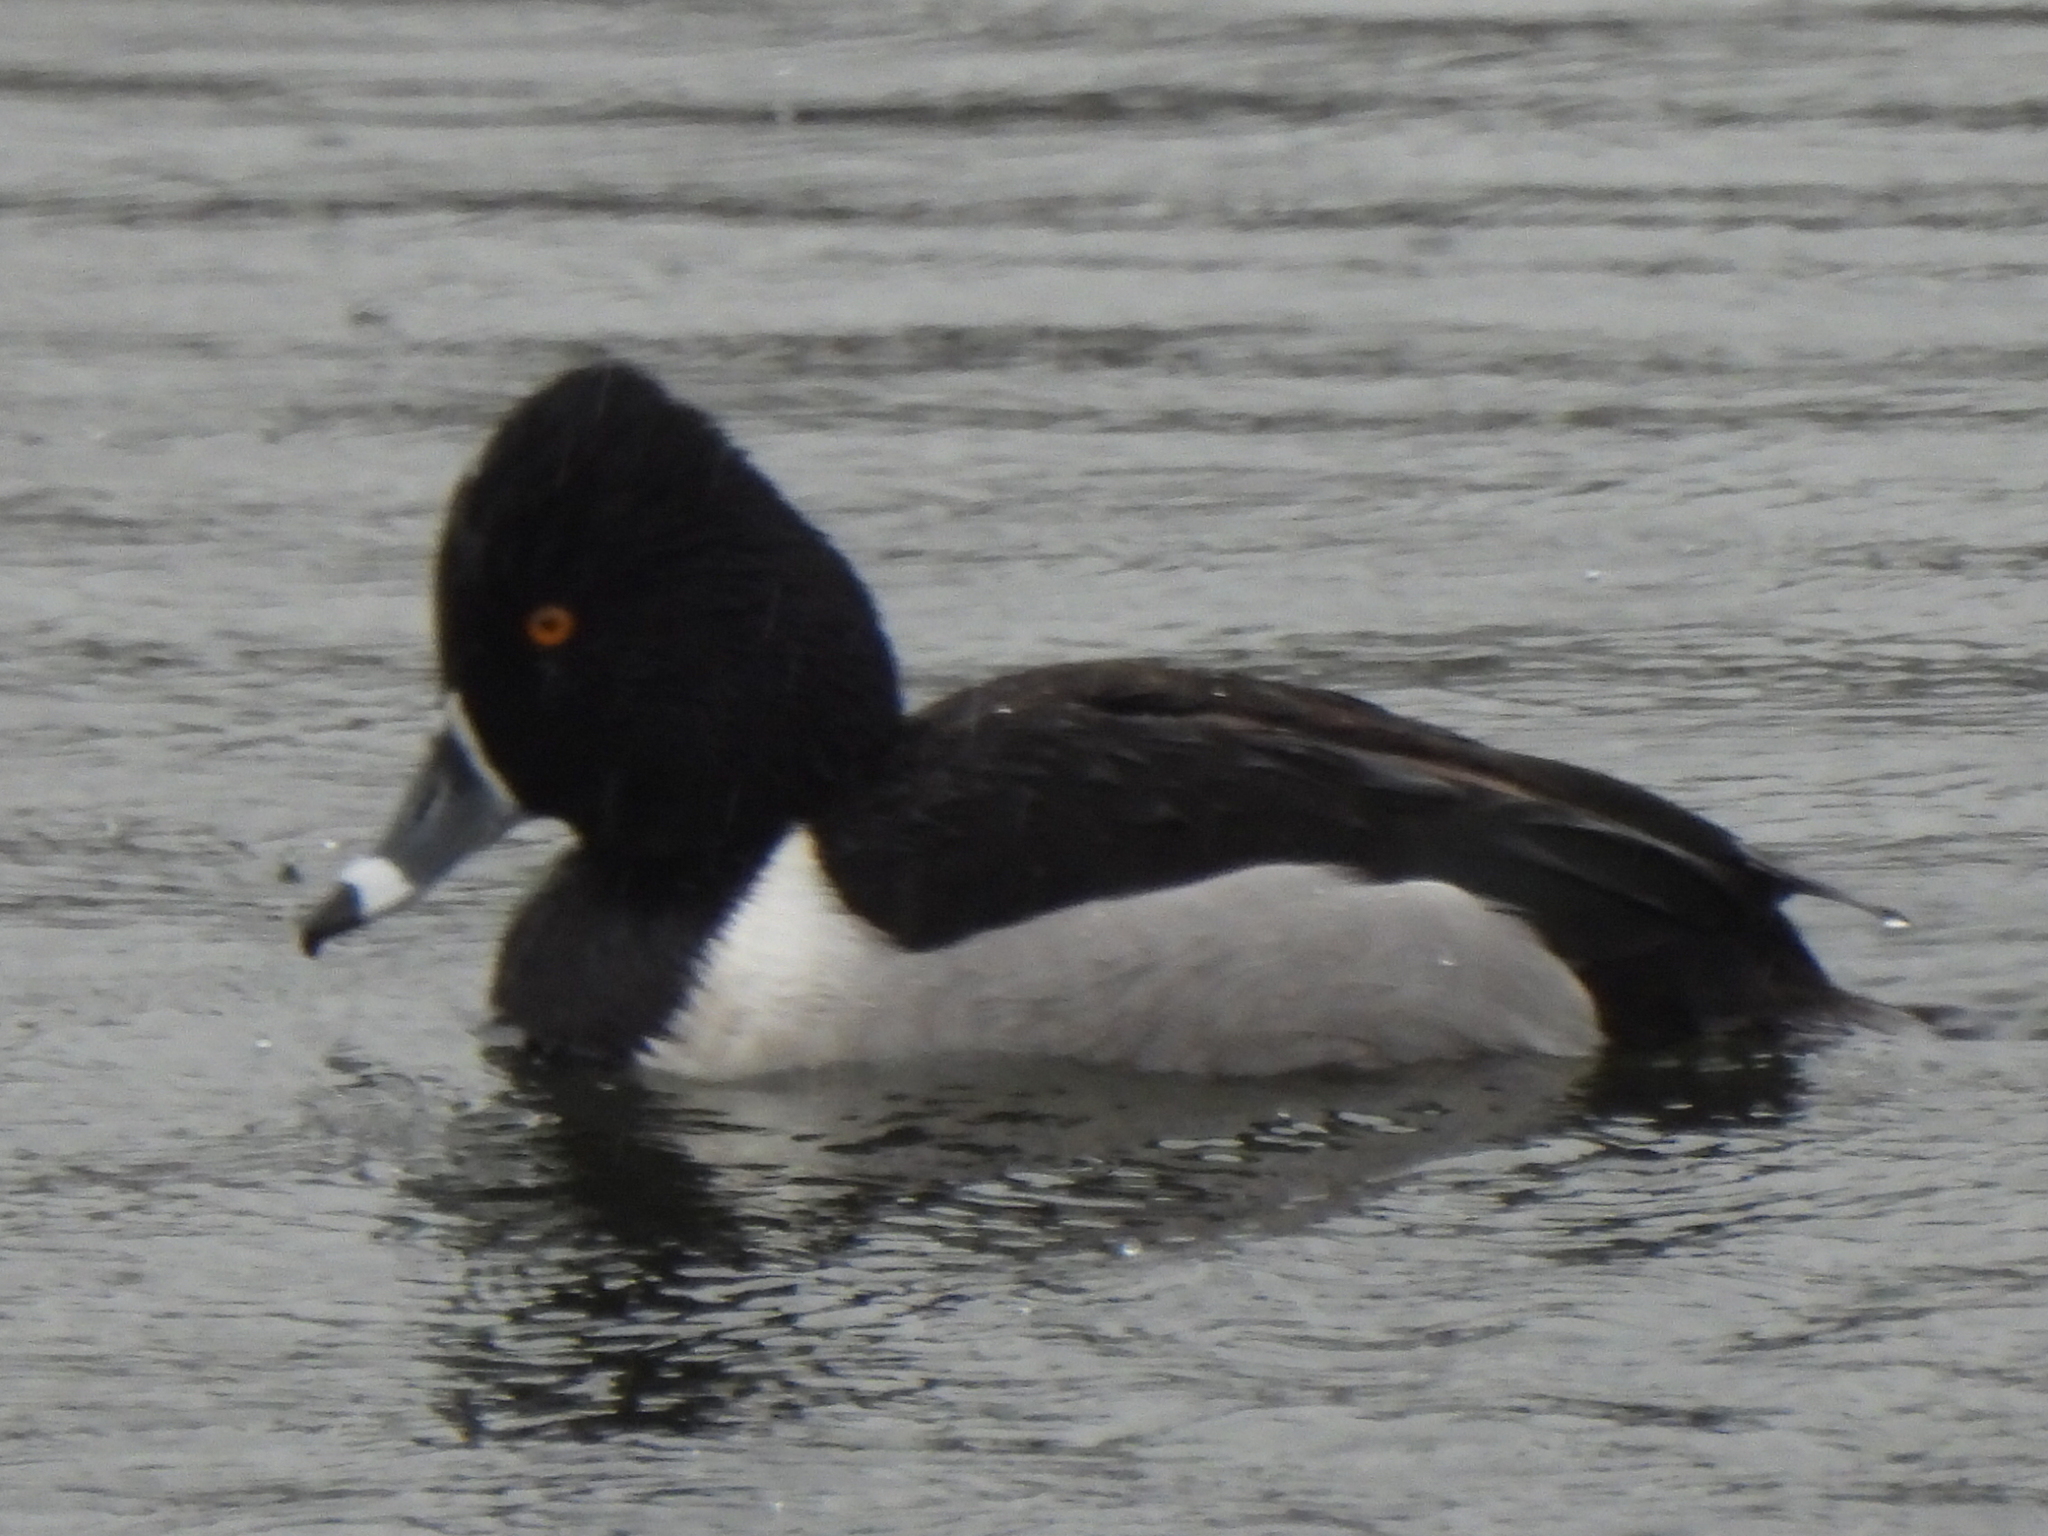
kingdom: Animalia
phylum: Chordata
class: Aves
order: Anseriformes
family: Anatidae
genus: Aythya
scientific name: Aythya collaris
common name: Ring-necked duck
